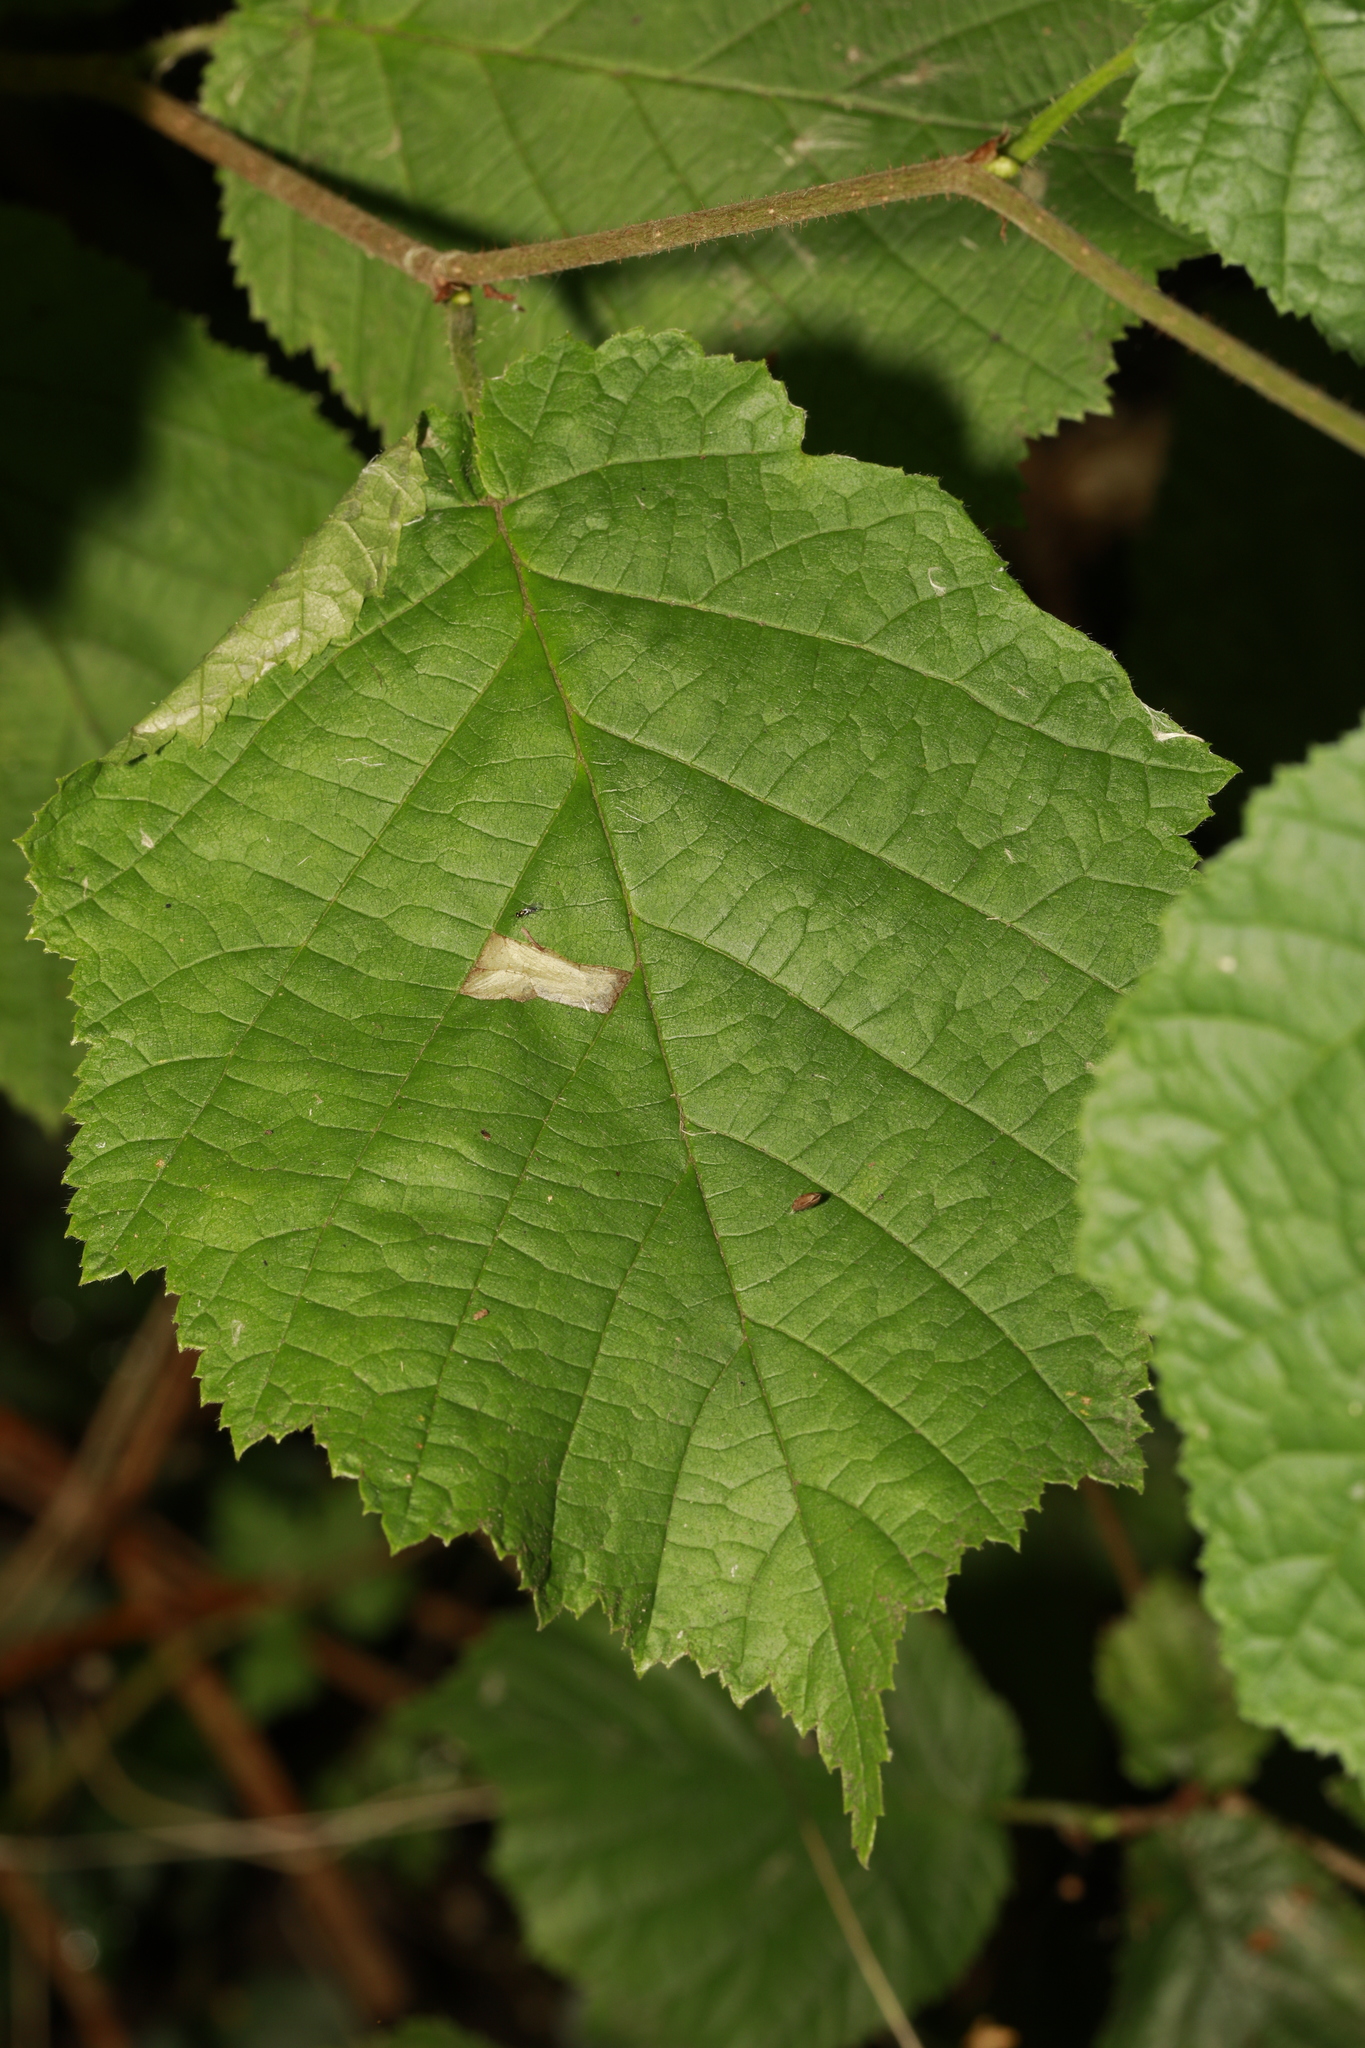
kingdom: Animalia
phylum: Arthropoda
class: Insecta
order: Lepidoptera
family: Gracillariidae
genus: Parornix
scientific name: Parornix devoniella
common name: Hazel slender
